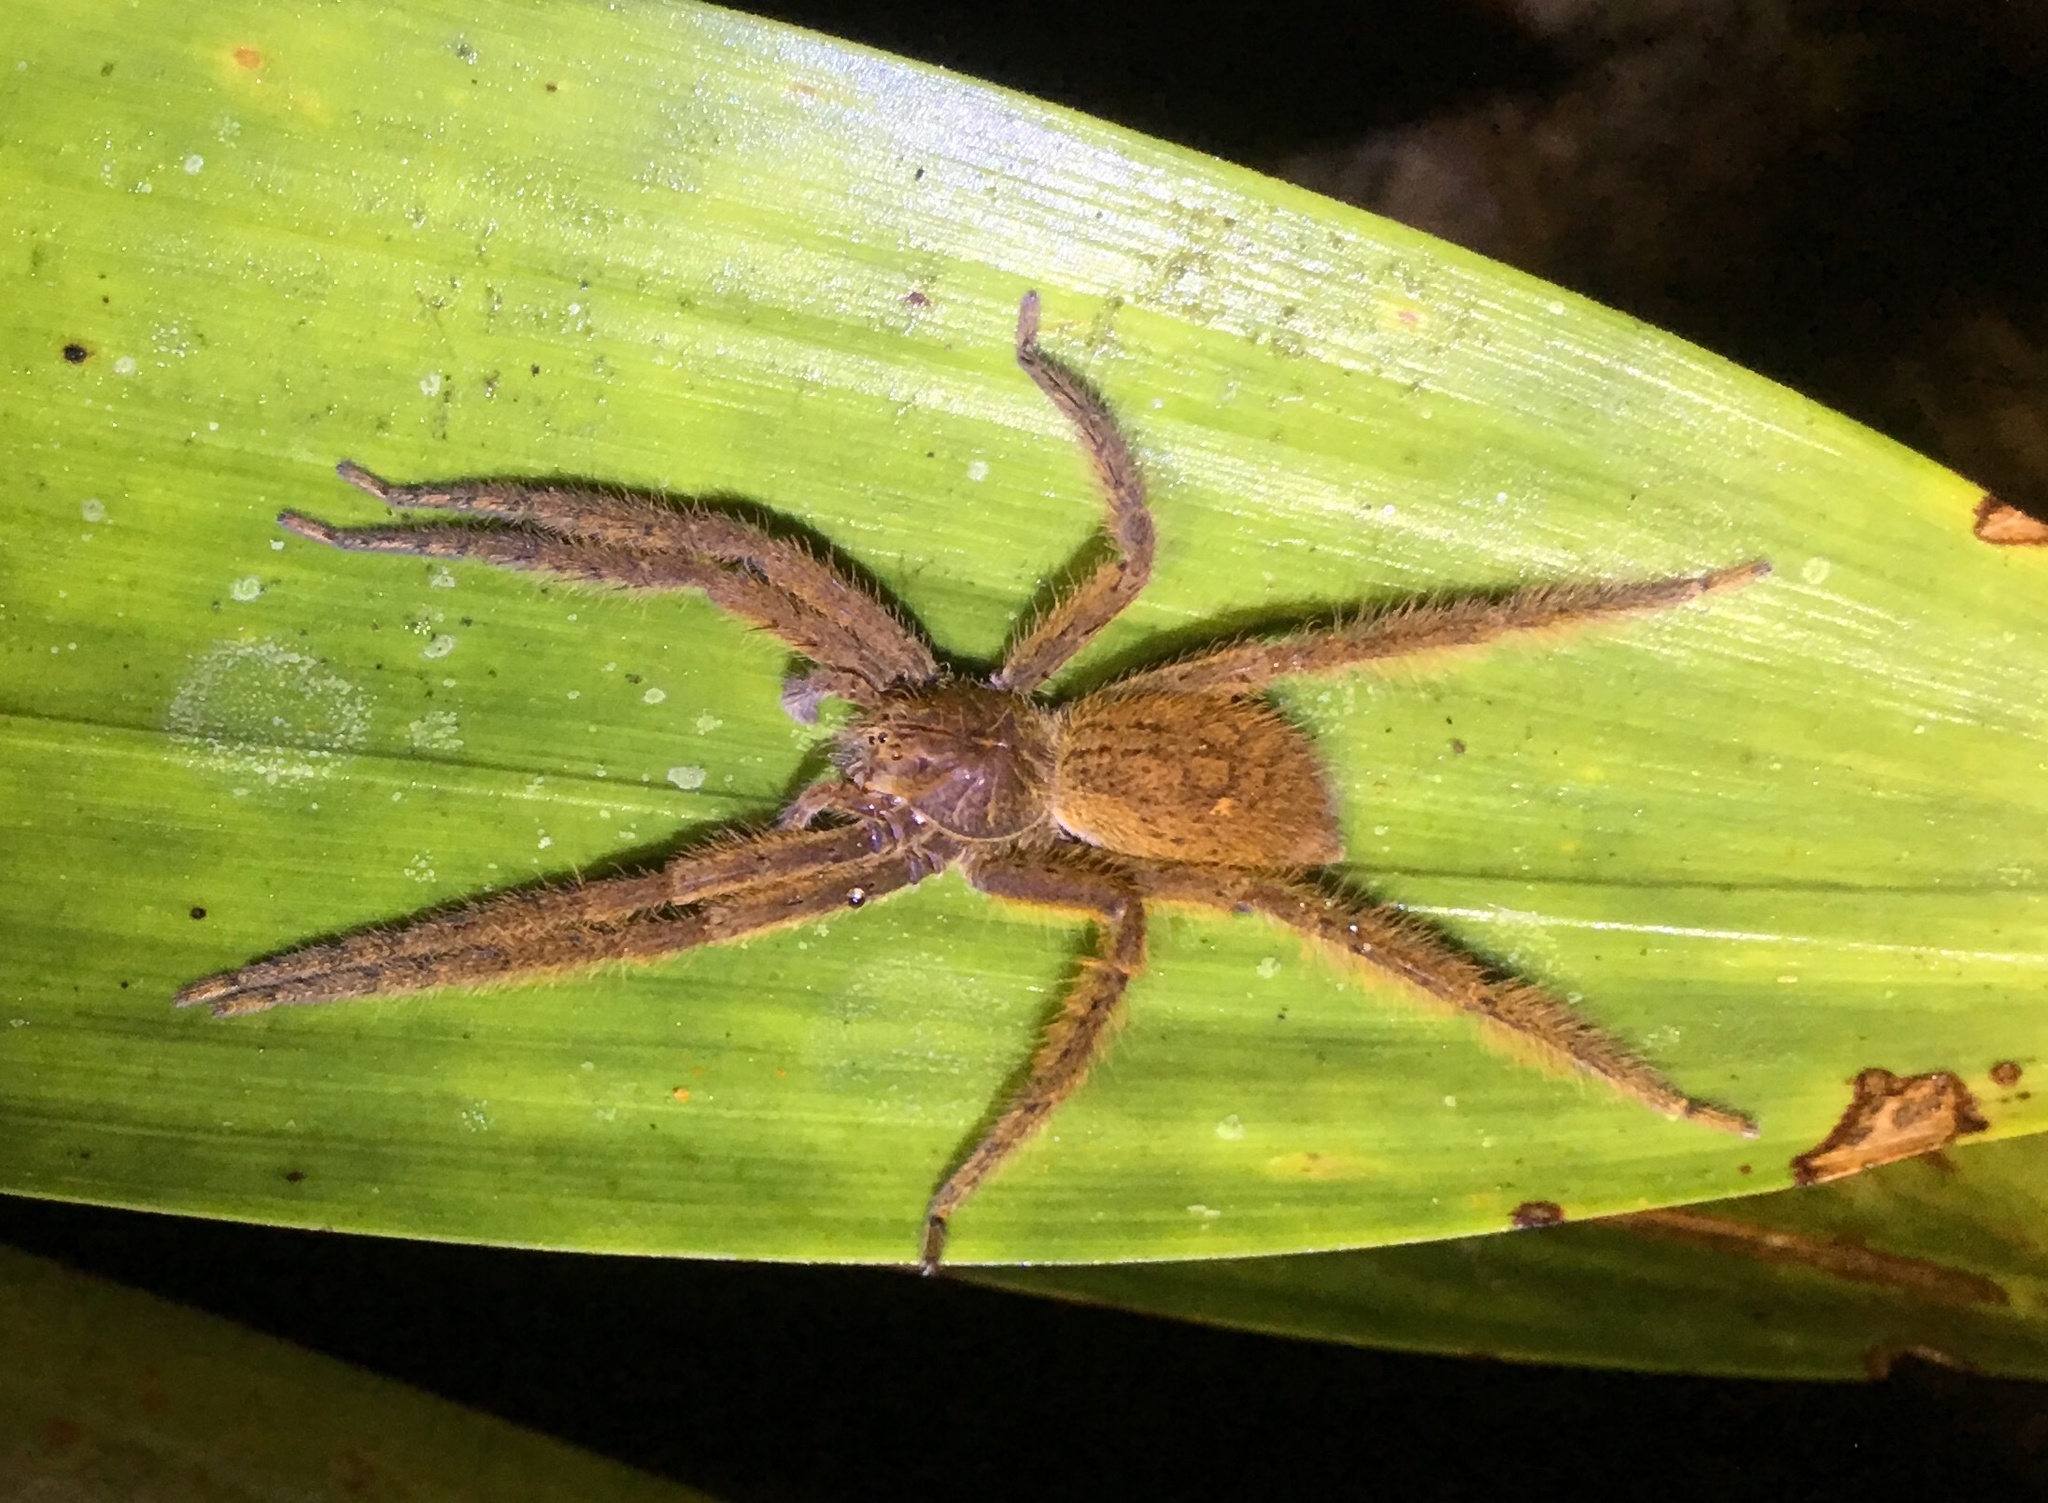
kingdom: Animalia
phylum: Arthropoda
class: Arachnida
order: Araneae
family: Trechaleidae
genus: Cupiennius
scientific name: Cupiennius coccineus
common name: Wandering spiders
